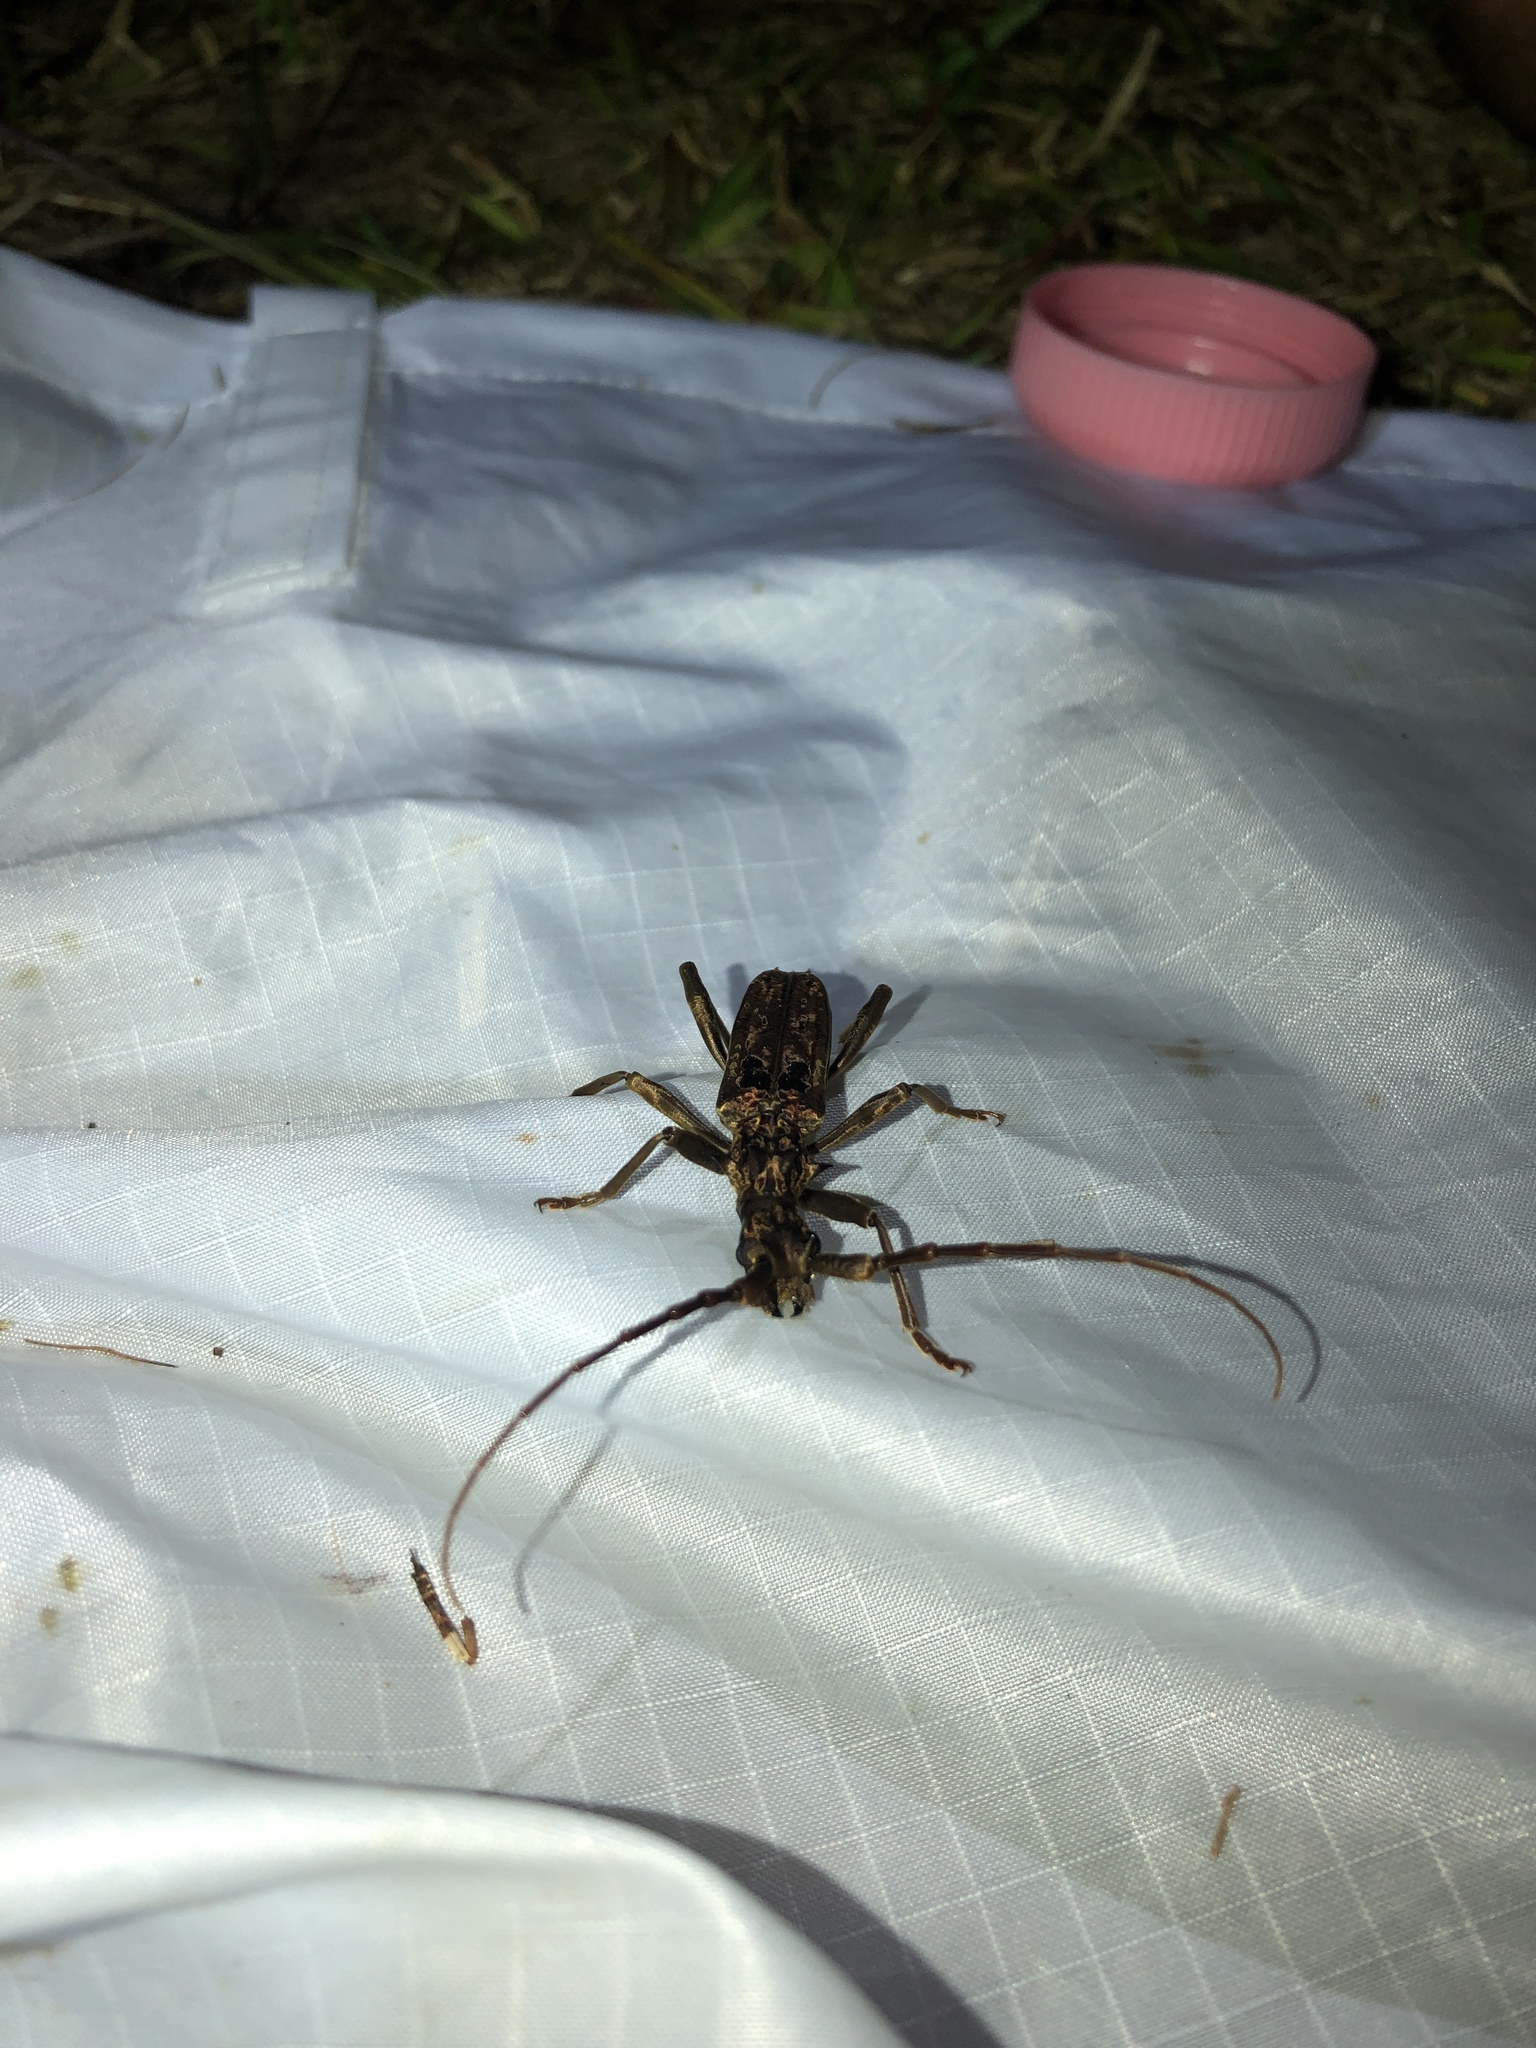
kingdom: Animalia
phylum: Arthropoda
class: Insecta
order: Coleoptera
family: Cerambycidae
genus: Blosyropus
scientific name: Blosyropus spinosus
